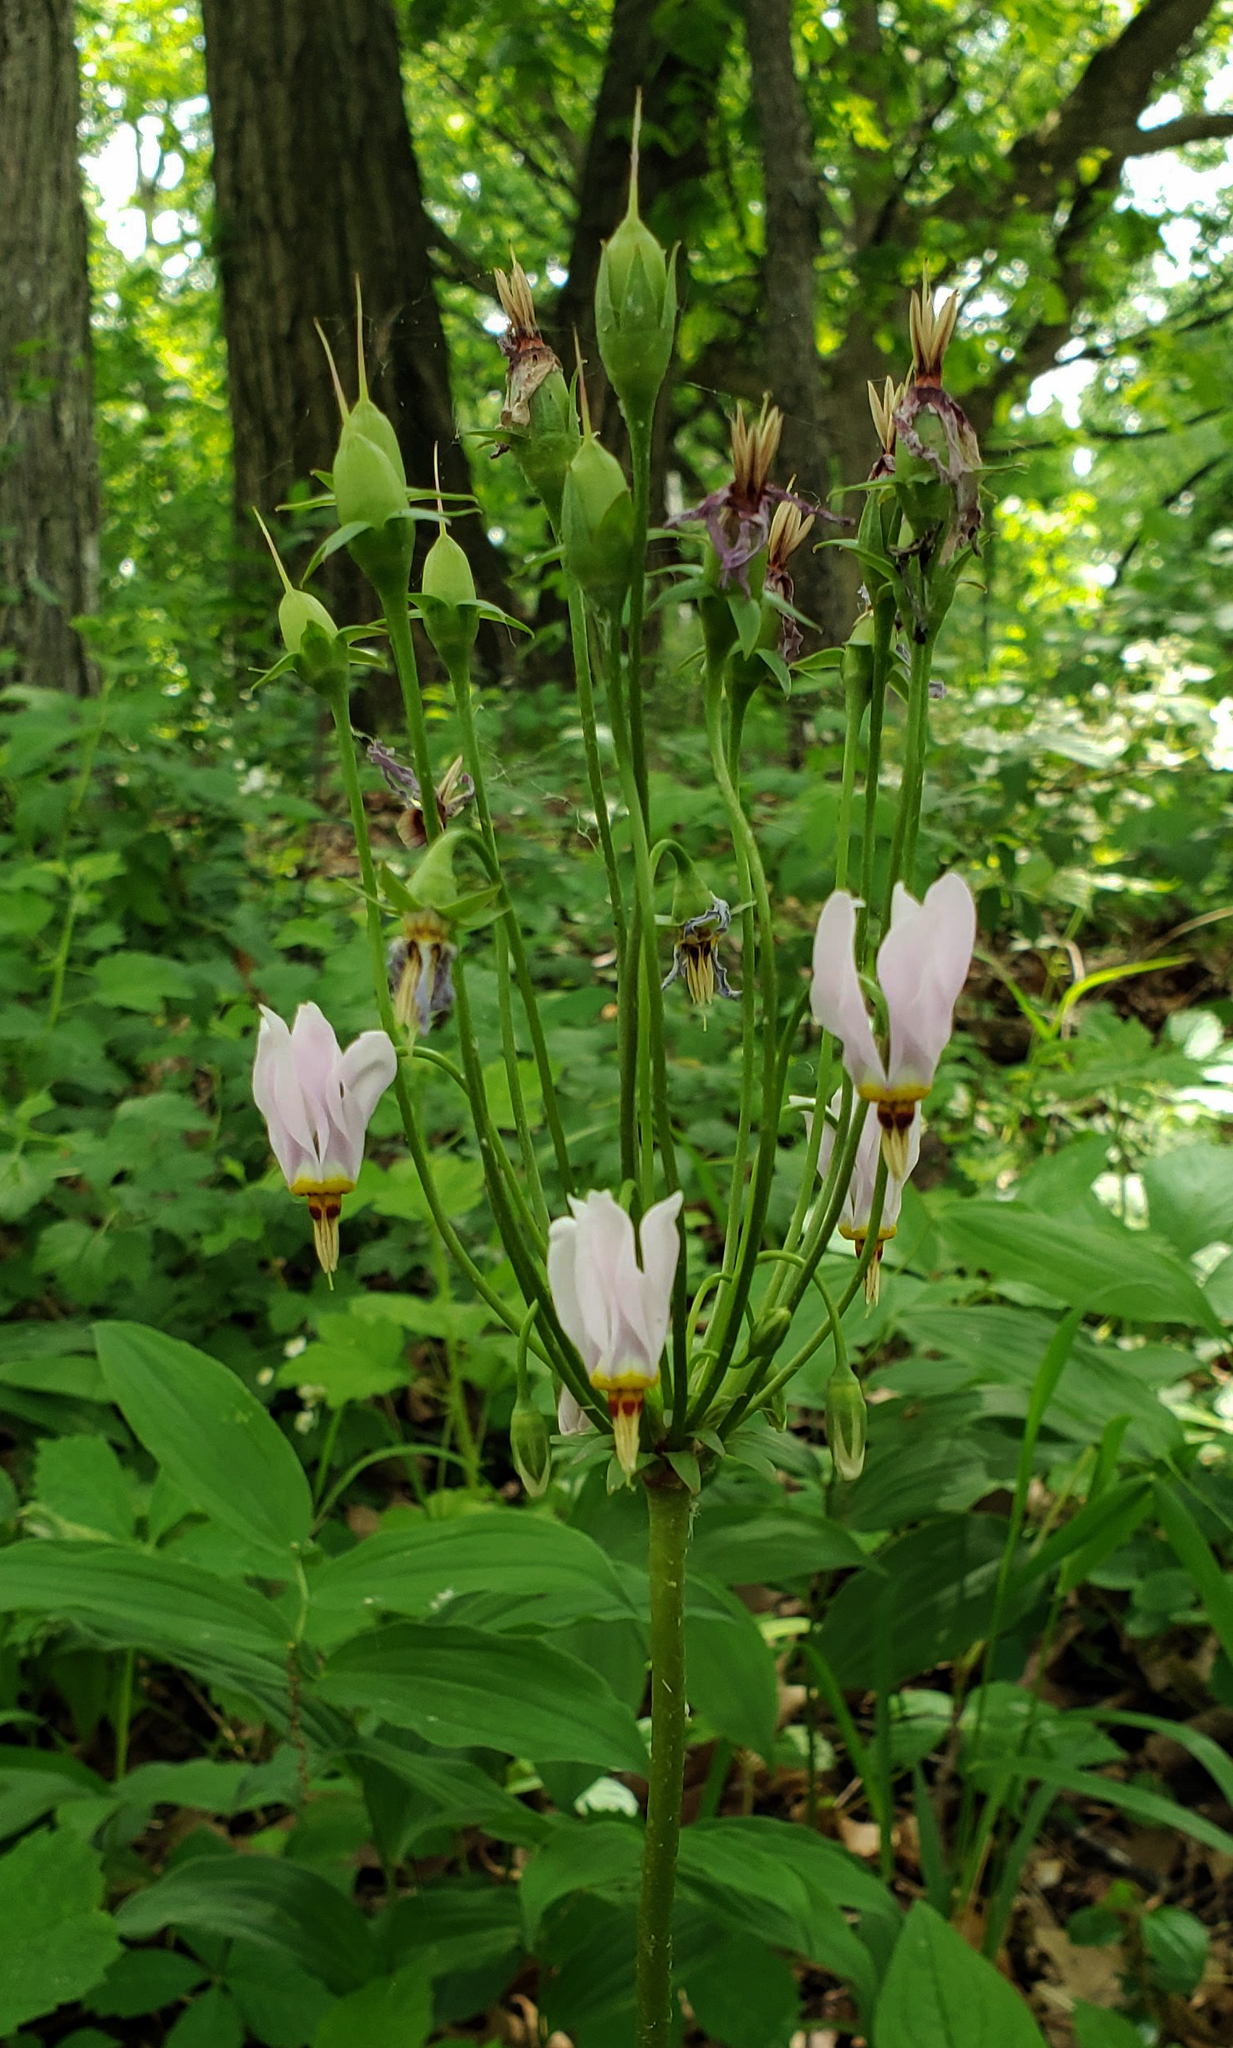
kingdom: Plantae
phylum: Tracheophyta
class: Magnoliopsida
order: Ericales
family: Primulaceae
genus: Dodecatheon
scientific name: Dodecatheon meadia
